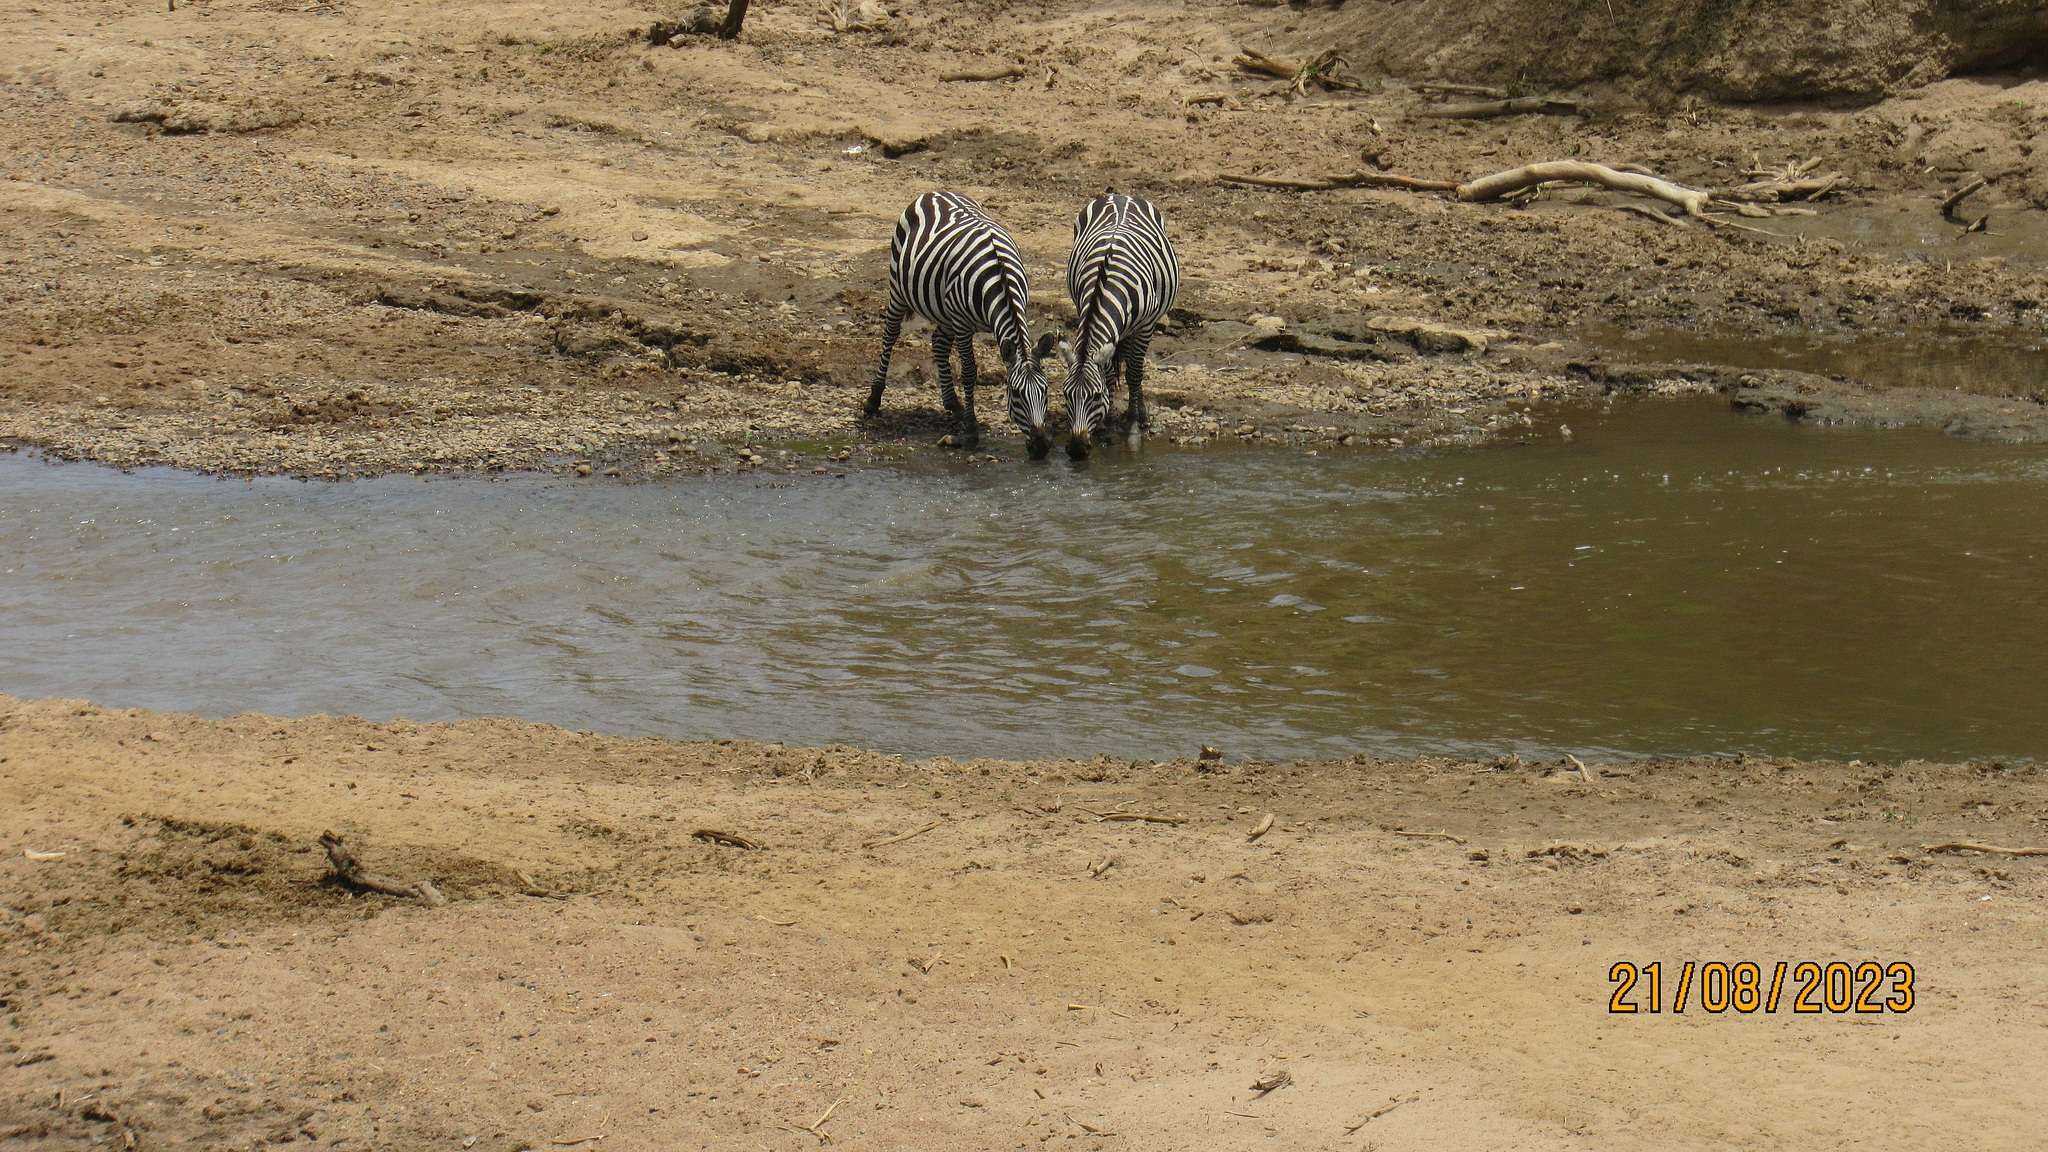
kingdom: Animalia
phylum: Chordata
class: Mammalia
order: Perissodactyla
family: Equidae
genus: Equus
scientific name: Equus quagga
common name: Plains zebra
